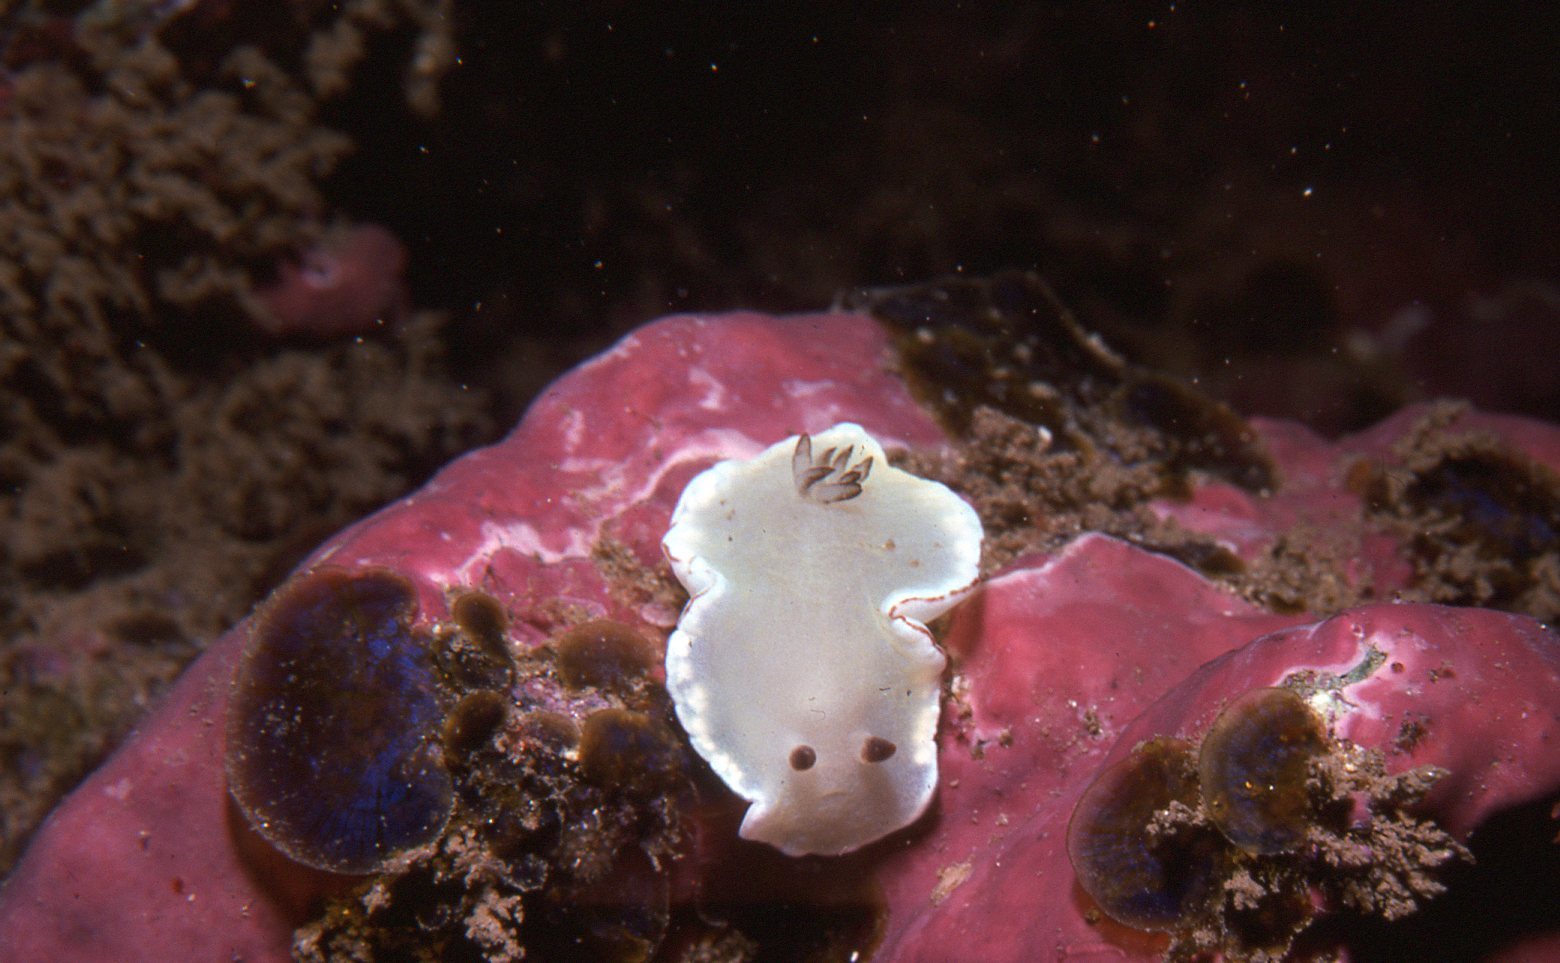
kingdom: Animalia
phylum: Mollusca
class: Gastropoda
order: Nudibranchia
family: Chromodorididae
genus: Glossodoris
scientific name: Glossodoris angasi
